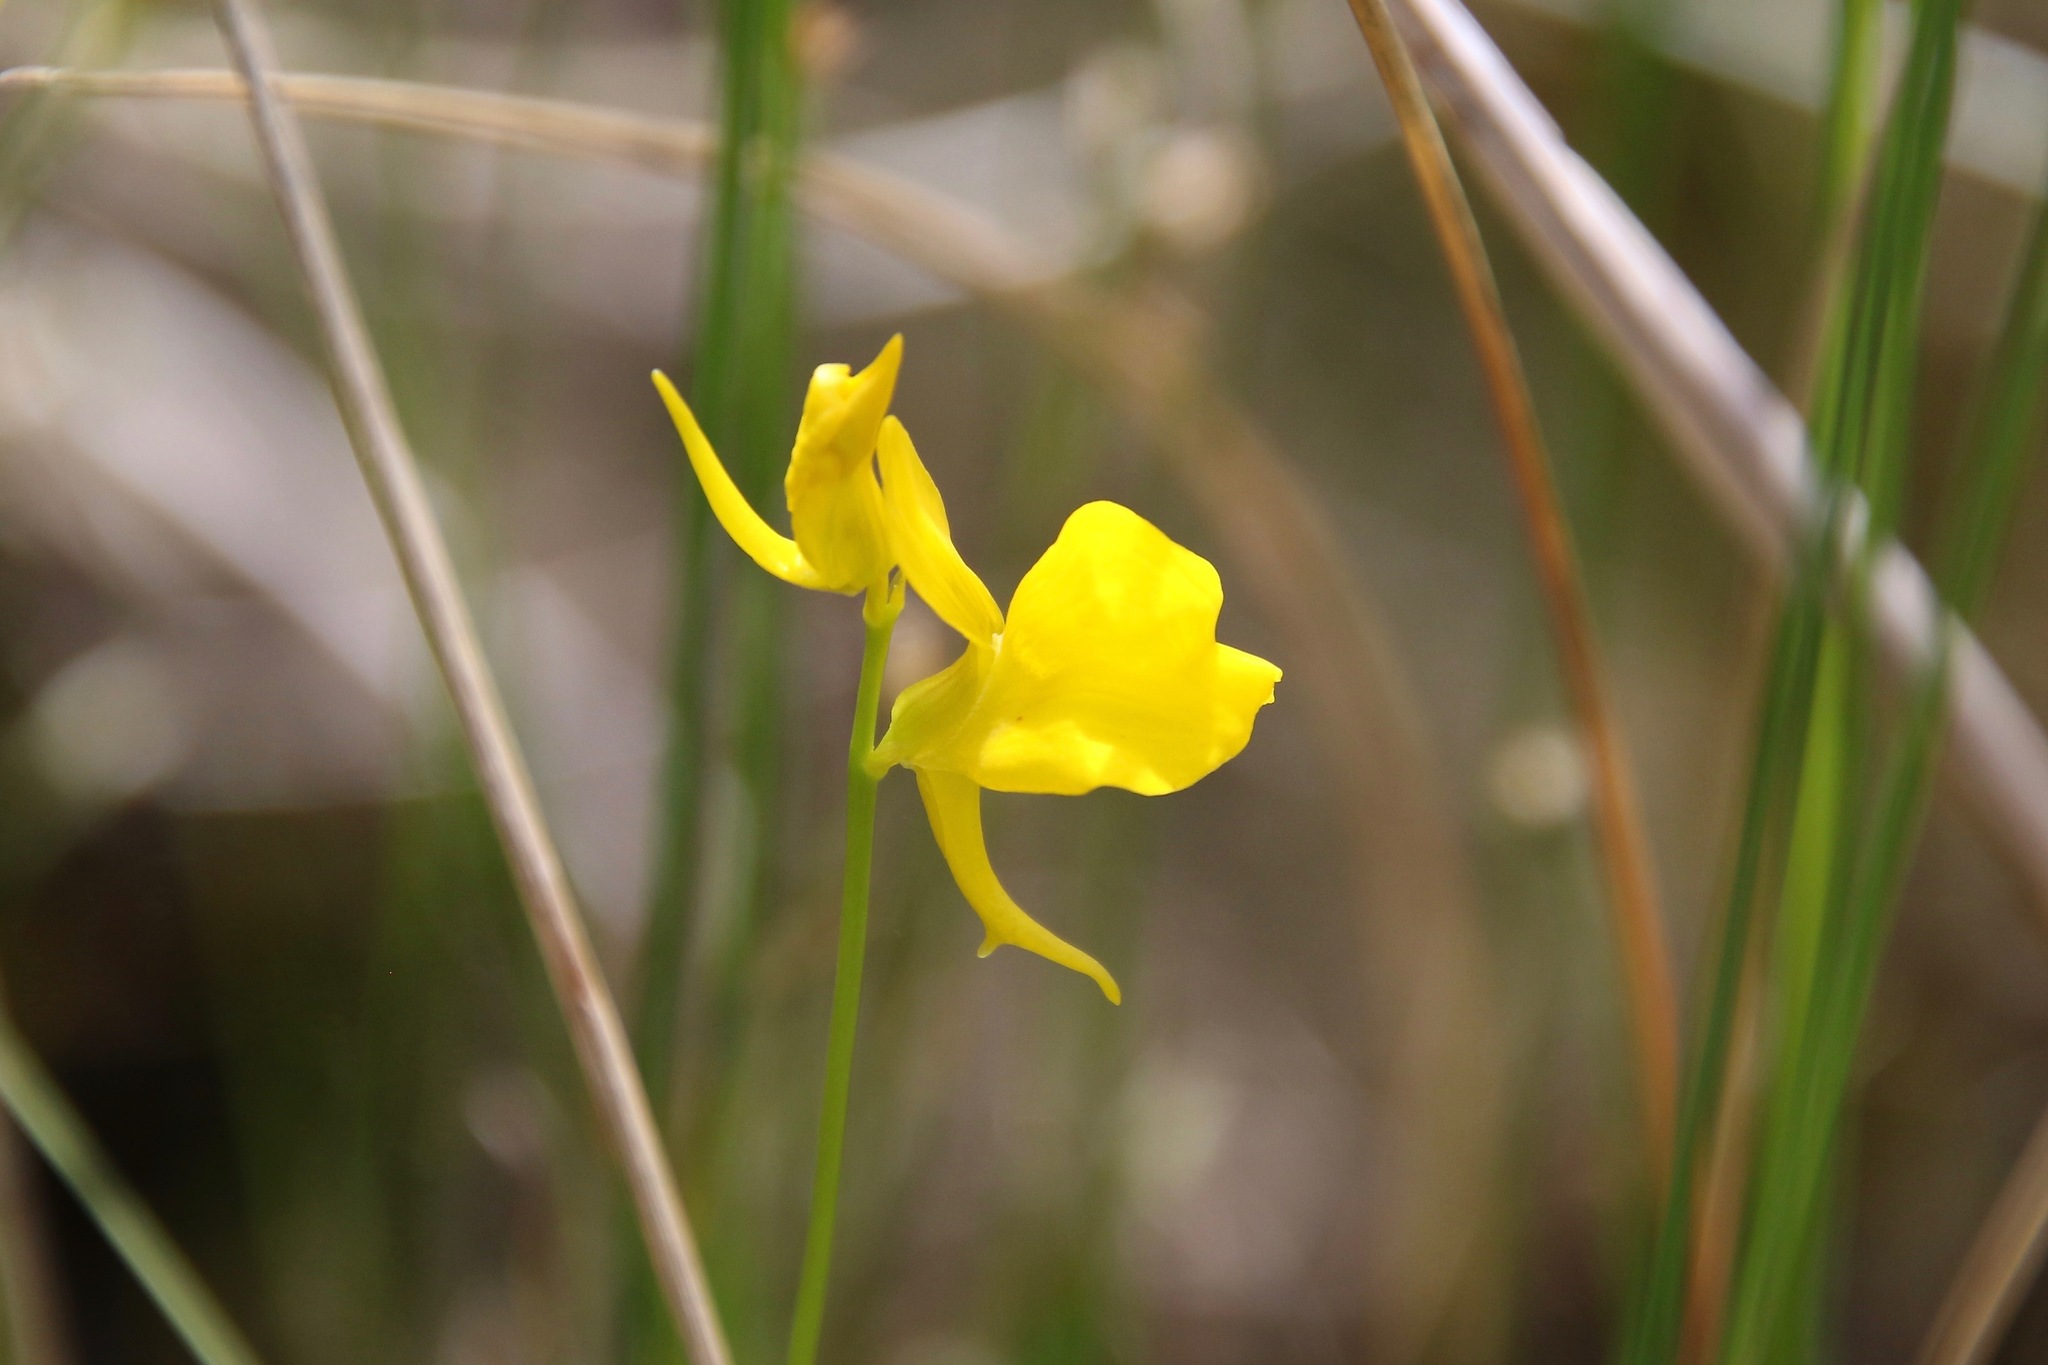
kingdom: Plantae
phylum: Tracheophyta
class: Magnoliopsida
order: Lamiales
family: Lentibulariaceae
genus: Utricularia
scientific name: Utricularia cornuta
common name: Horned bladderwort
